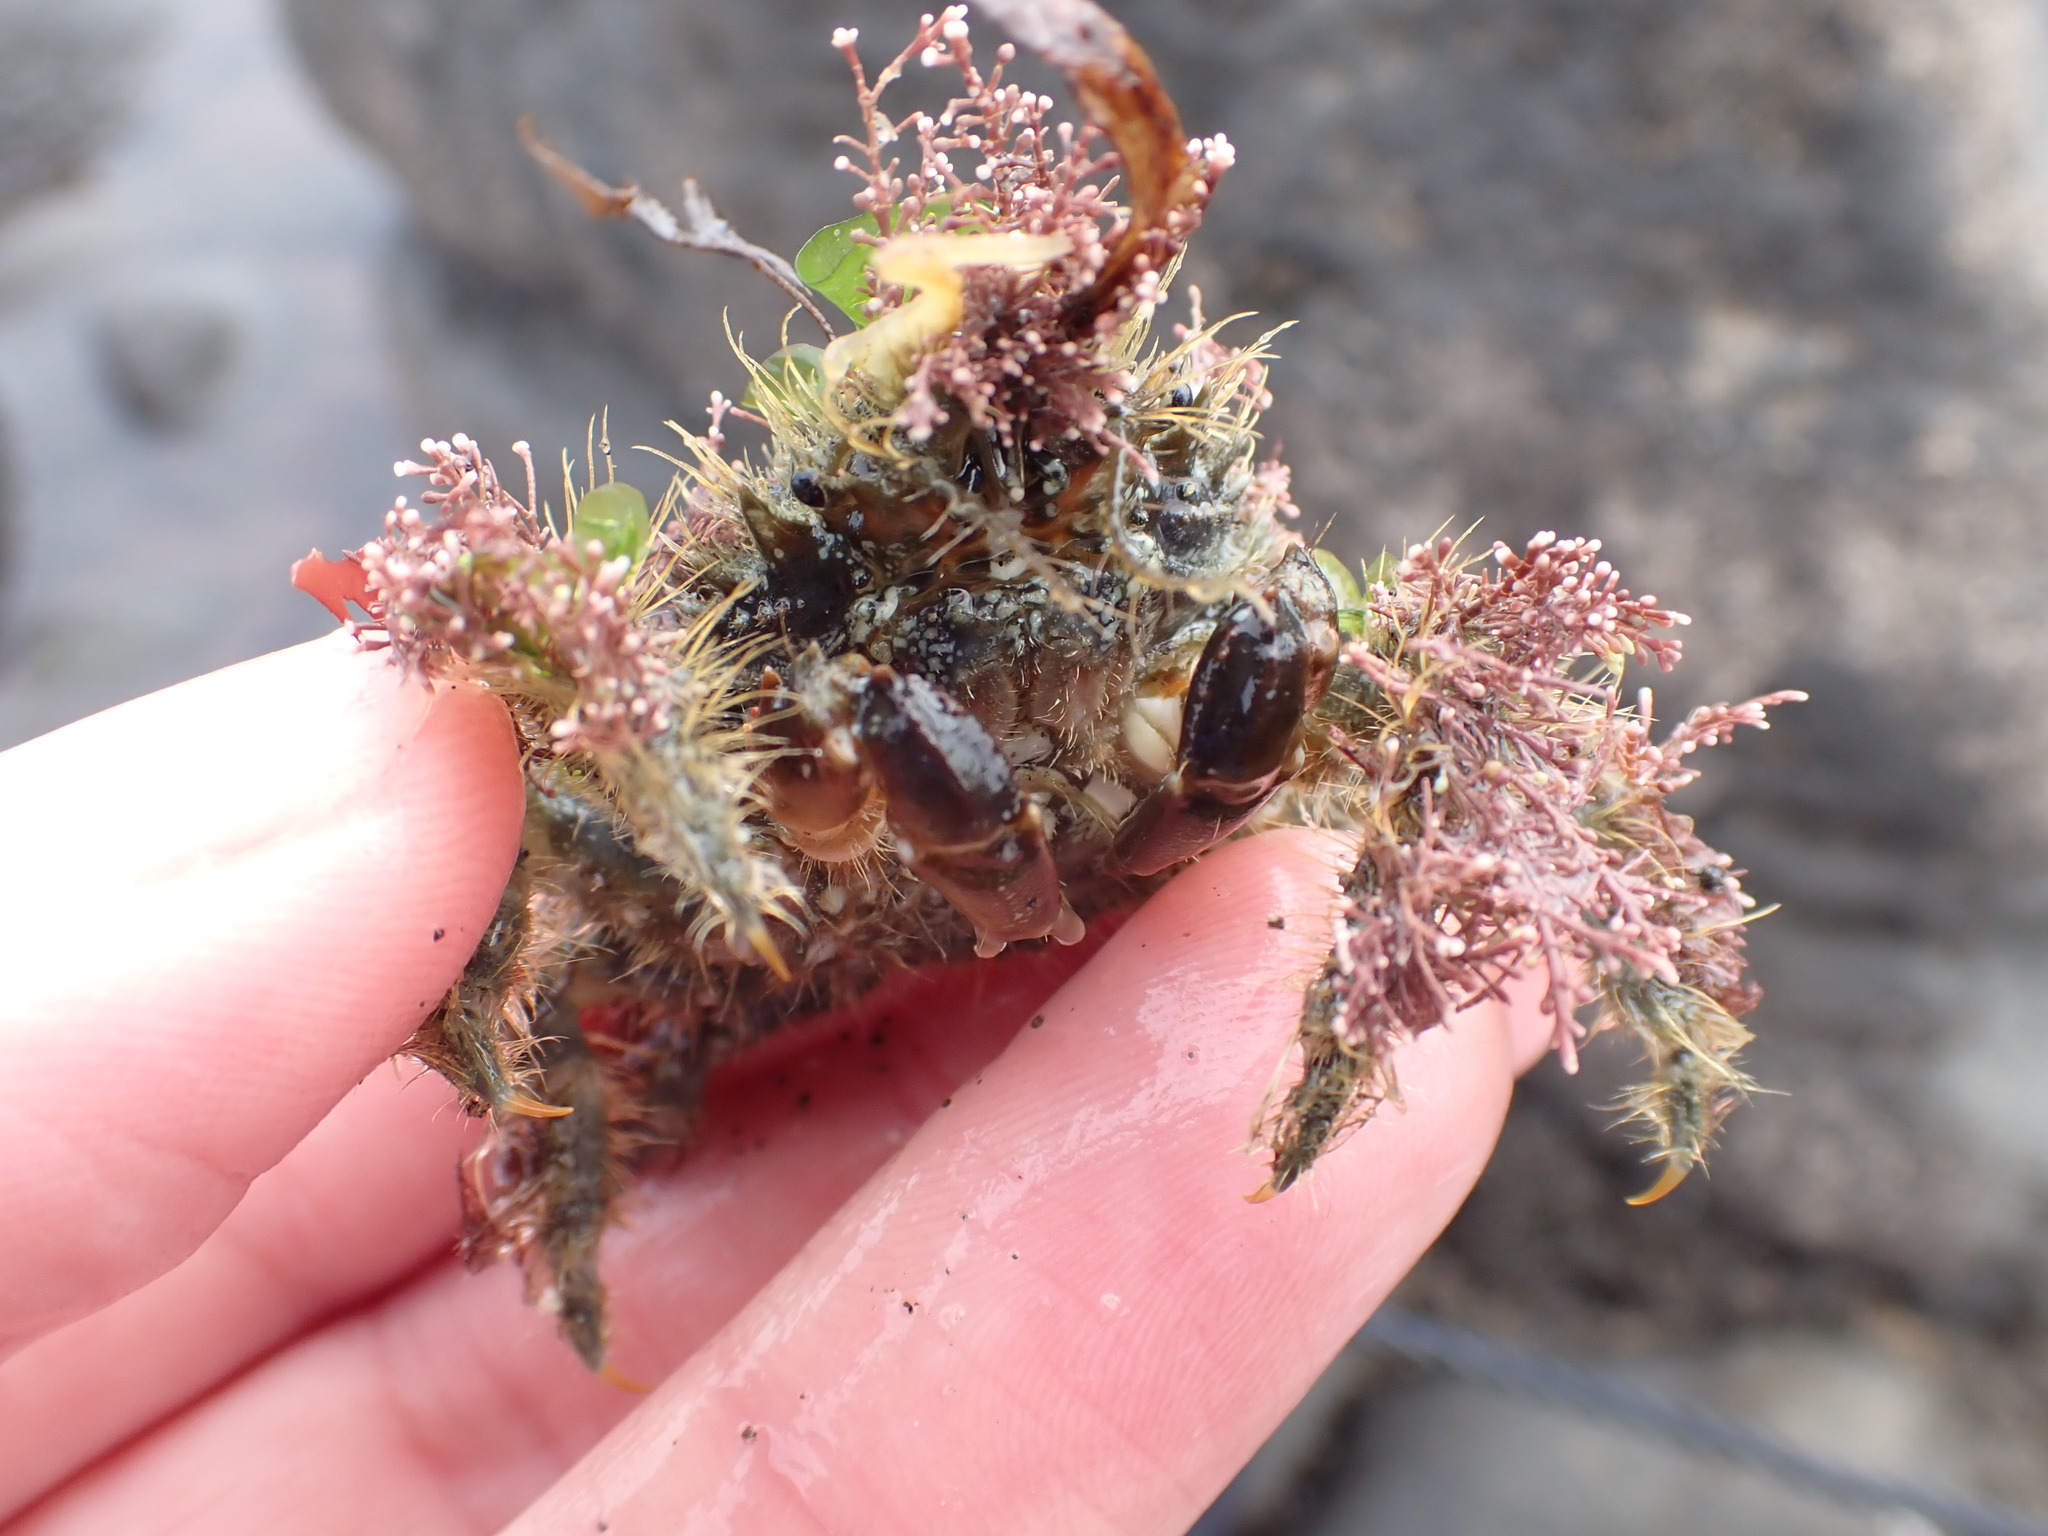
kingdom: Animalia
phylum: Arthropoda
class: Malacostraca
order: Decapoda
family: Majidae
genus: Notomithrax
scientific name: Notomithrax ursus
